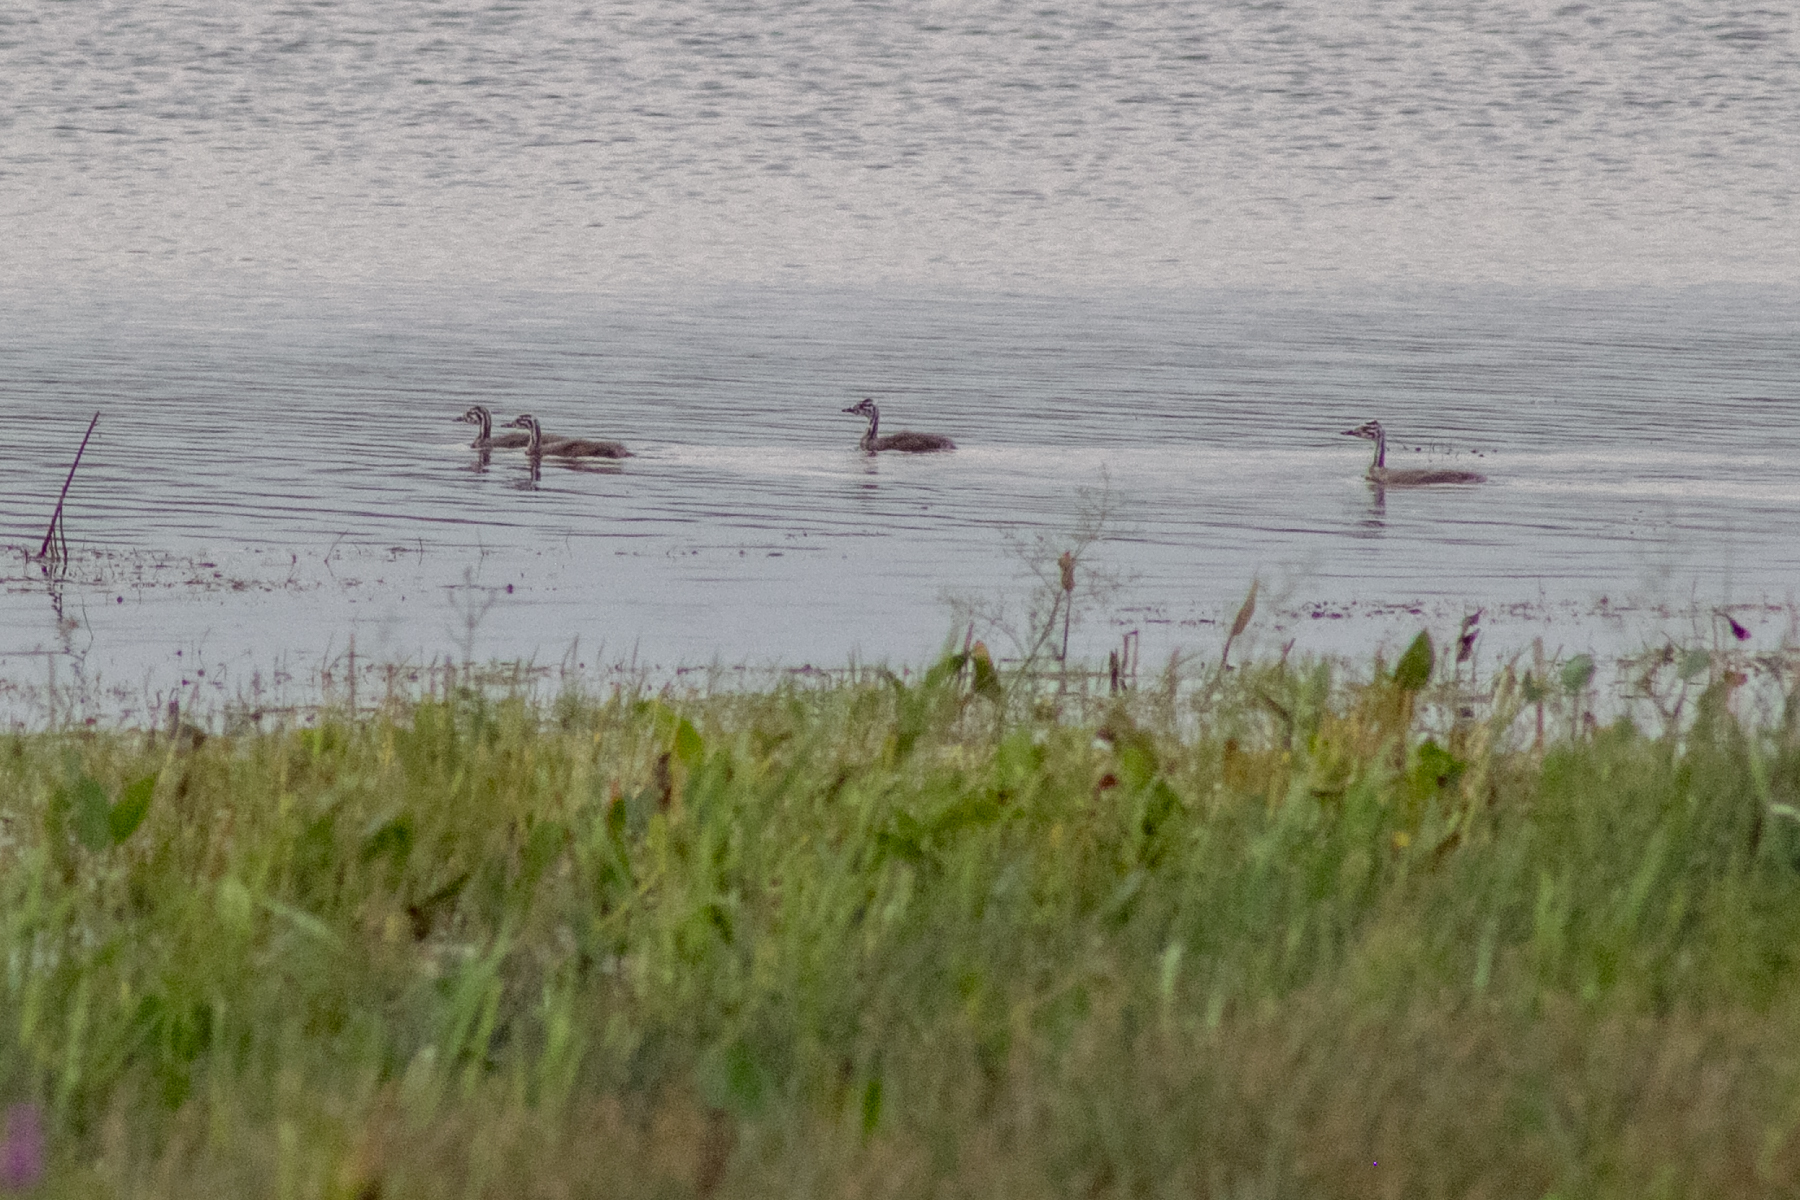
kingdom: Animalia
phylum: Chordata
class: Aves
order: Podicipediformes
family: Podicipedidae
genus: Podiceps
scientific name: Podiceps cristatus
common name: Great crested grebe
